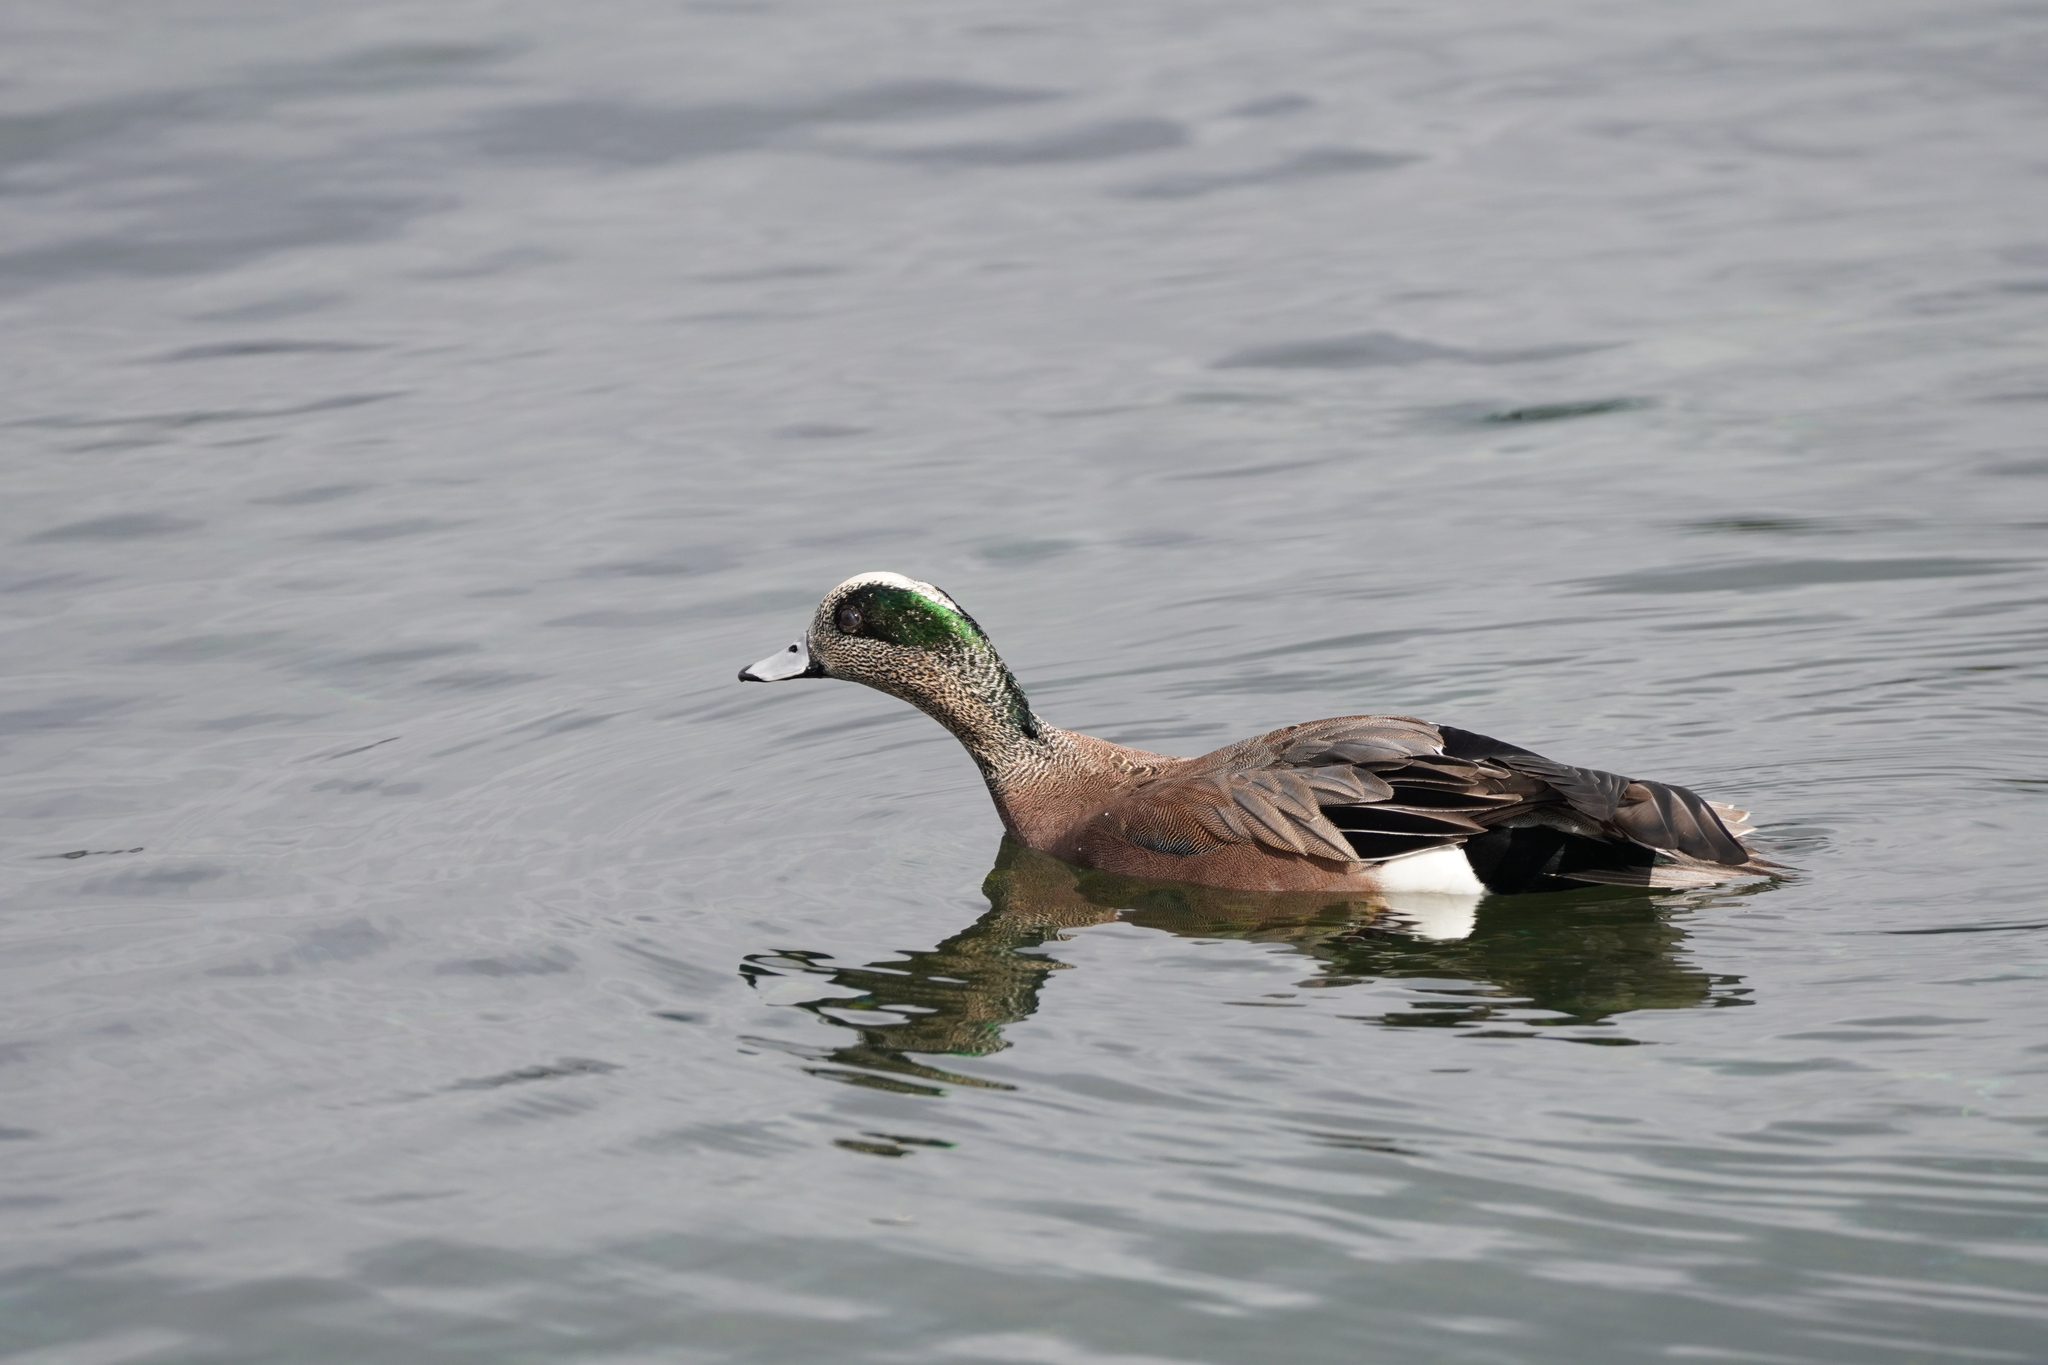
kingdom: Animalia
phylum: Chordata
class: Aves
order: Anseriformes
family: Anatidae
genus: Mareca
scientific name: Mareca americana
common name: American wigeon
